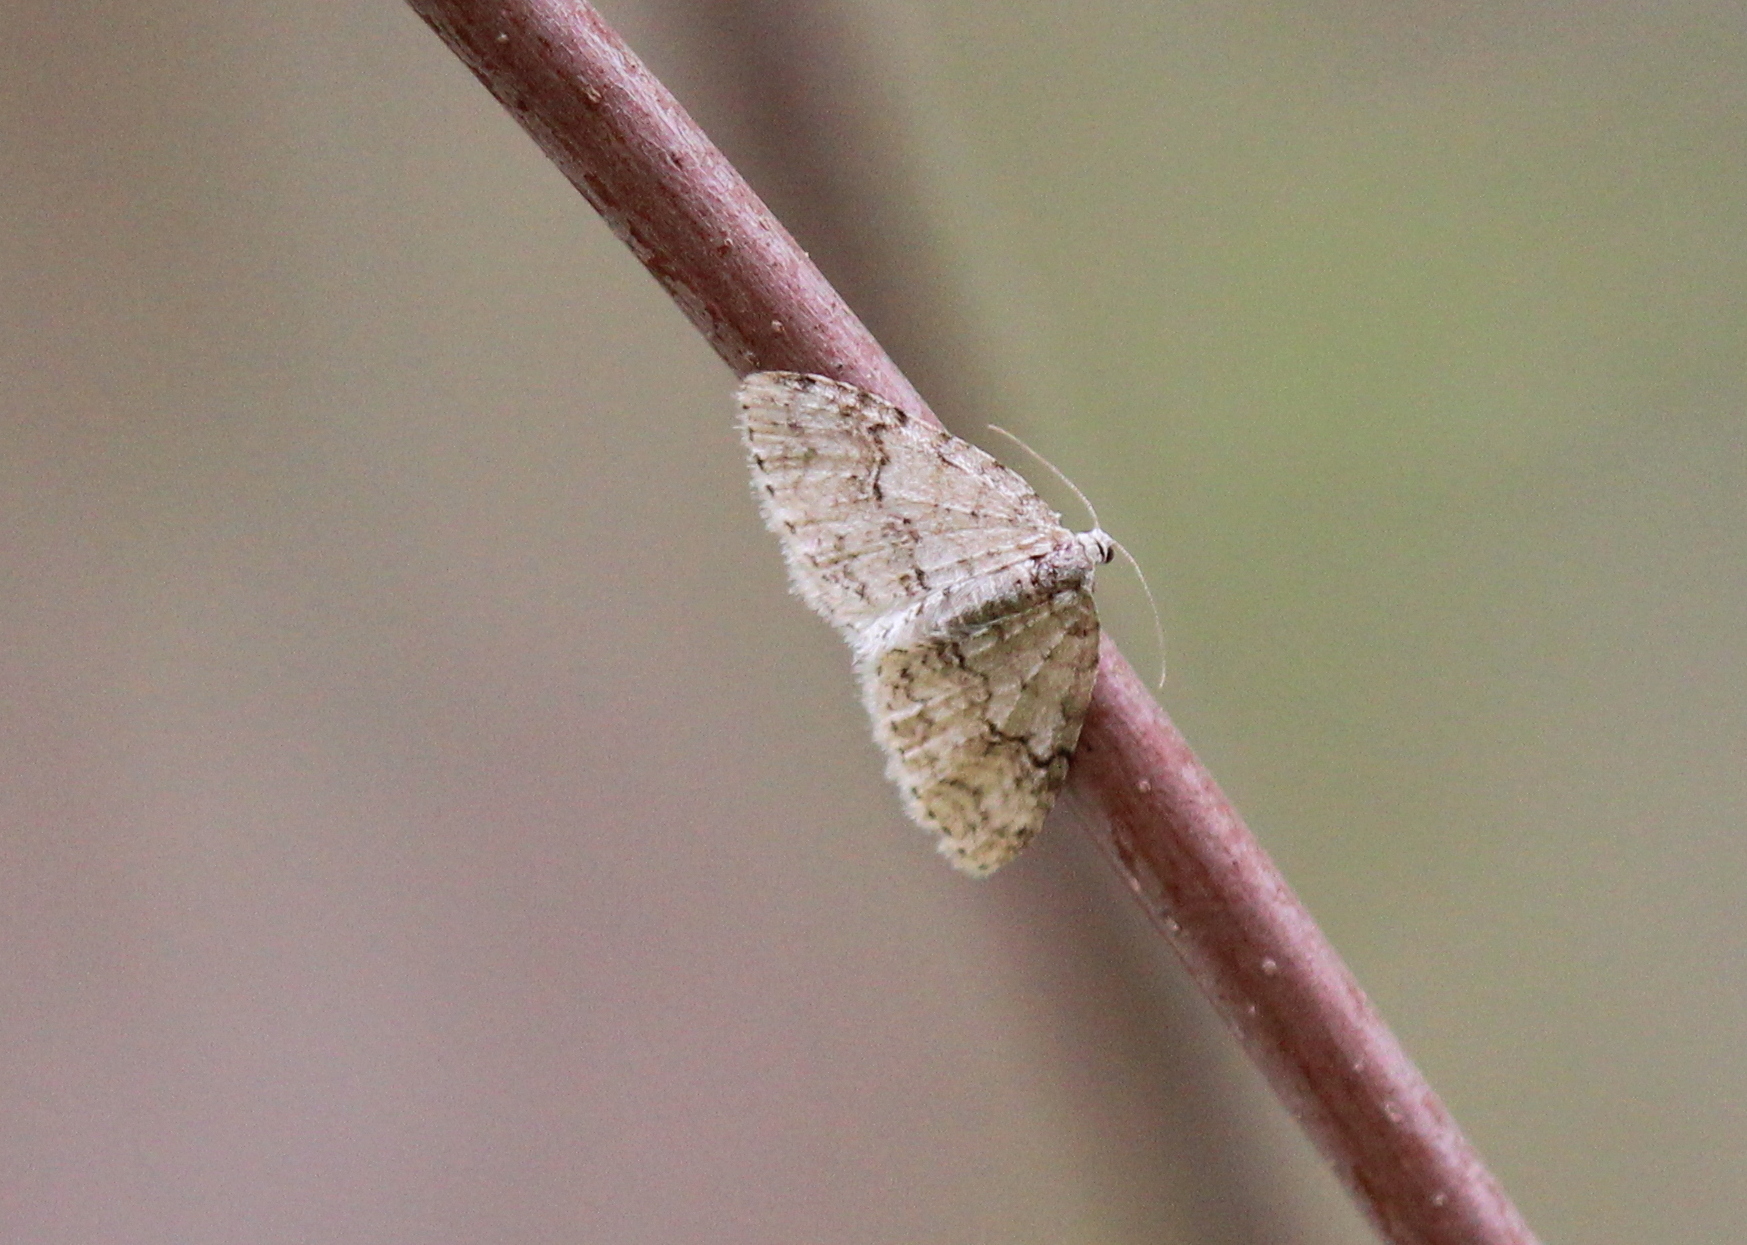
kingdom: Animalia
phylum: Arthropoda
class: Insecta
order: Lepidoptera
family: Geometridae
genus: Venusia
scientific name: Venusia comptaria
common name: Brown-shaded carpet
